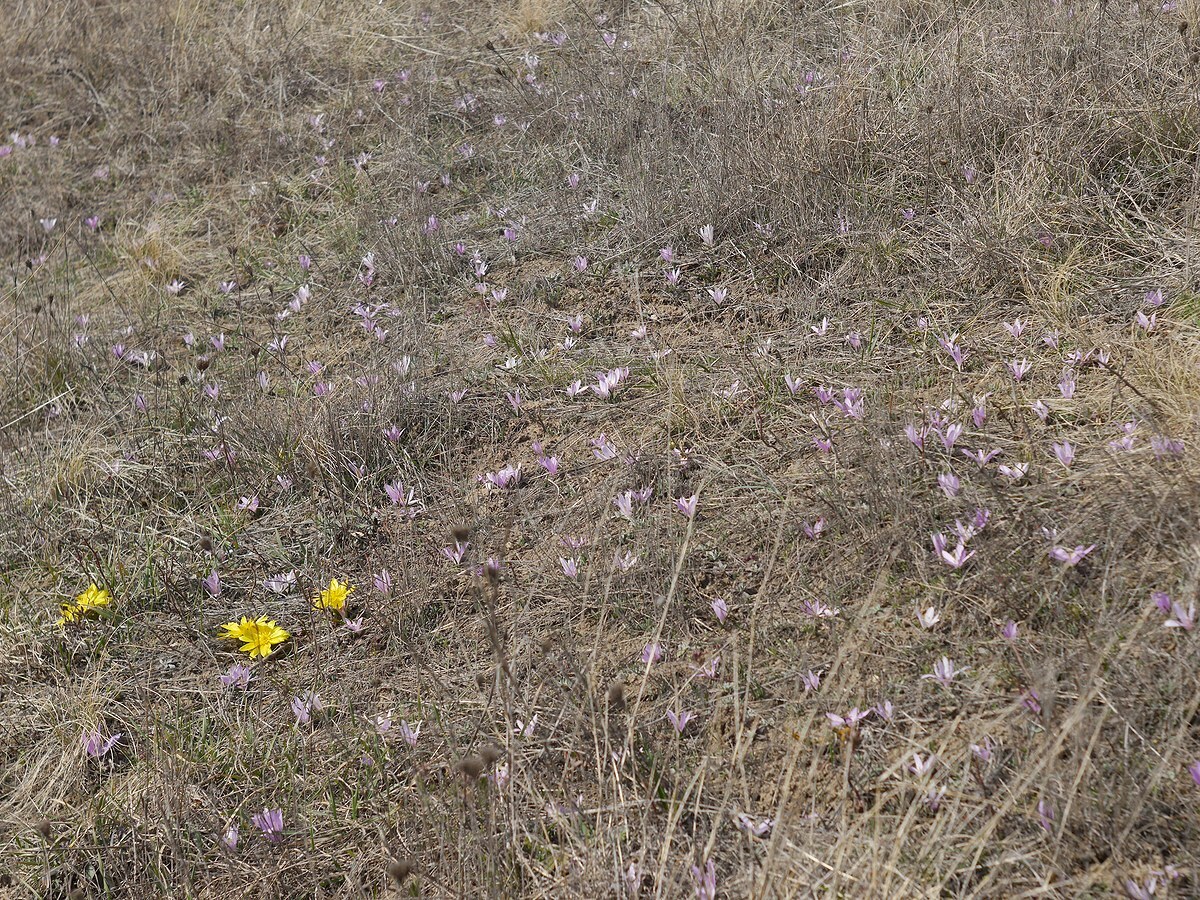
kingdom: Plantae
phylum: Tracheophyta
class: Liliopsida
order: Liliales
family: Colchicaceae
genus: Colchicum
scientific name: Colchicum bulbocodium
